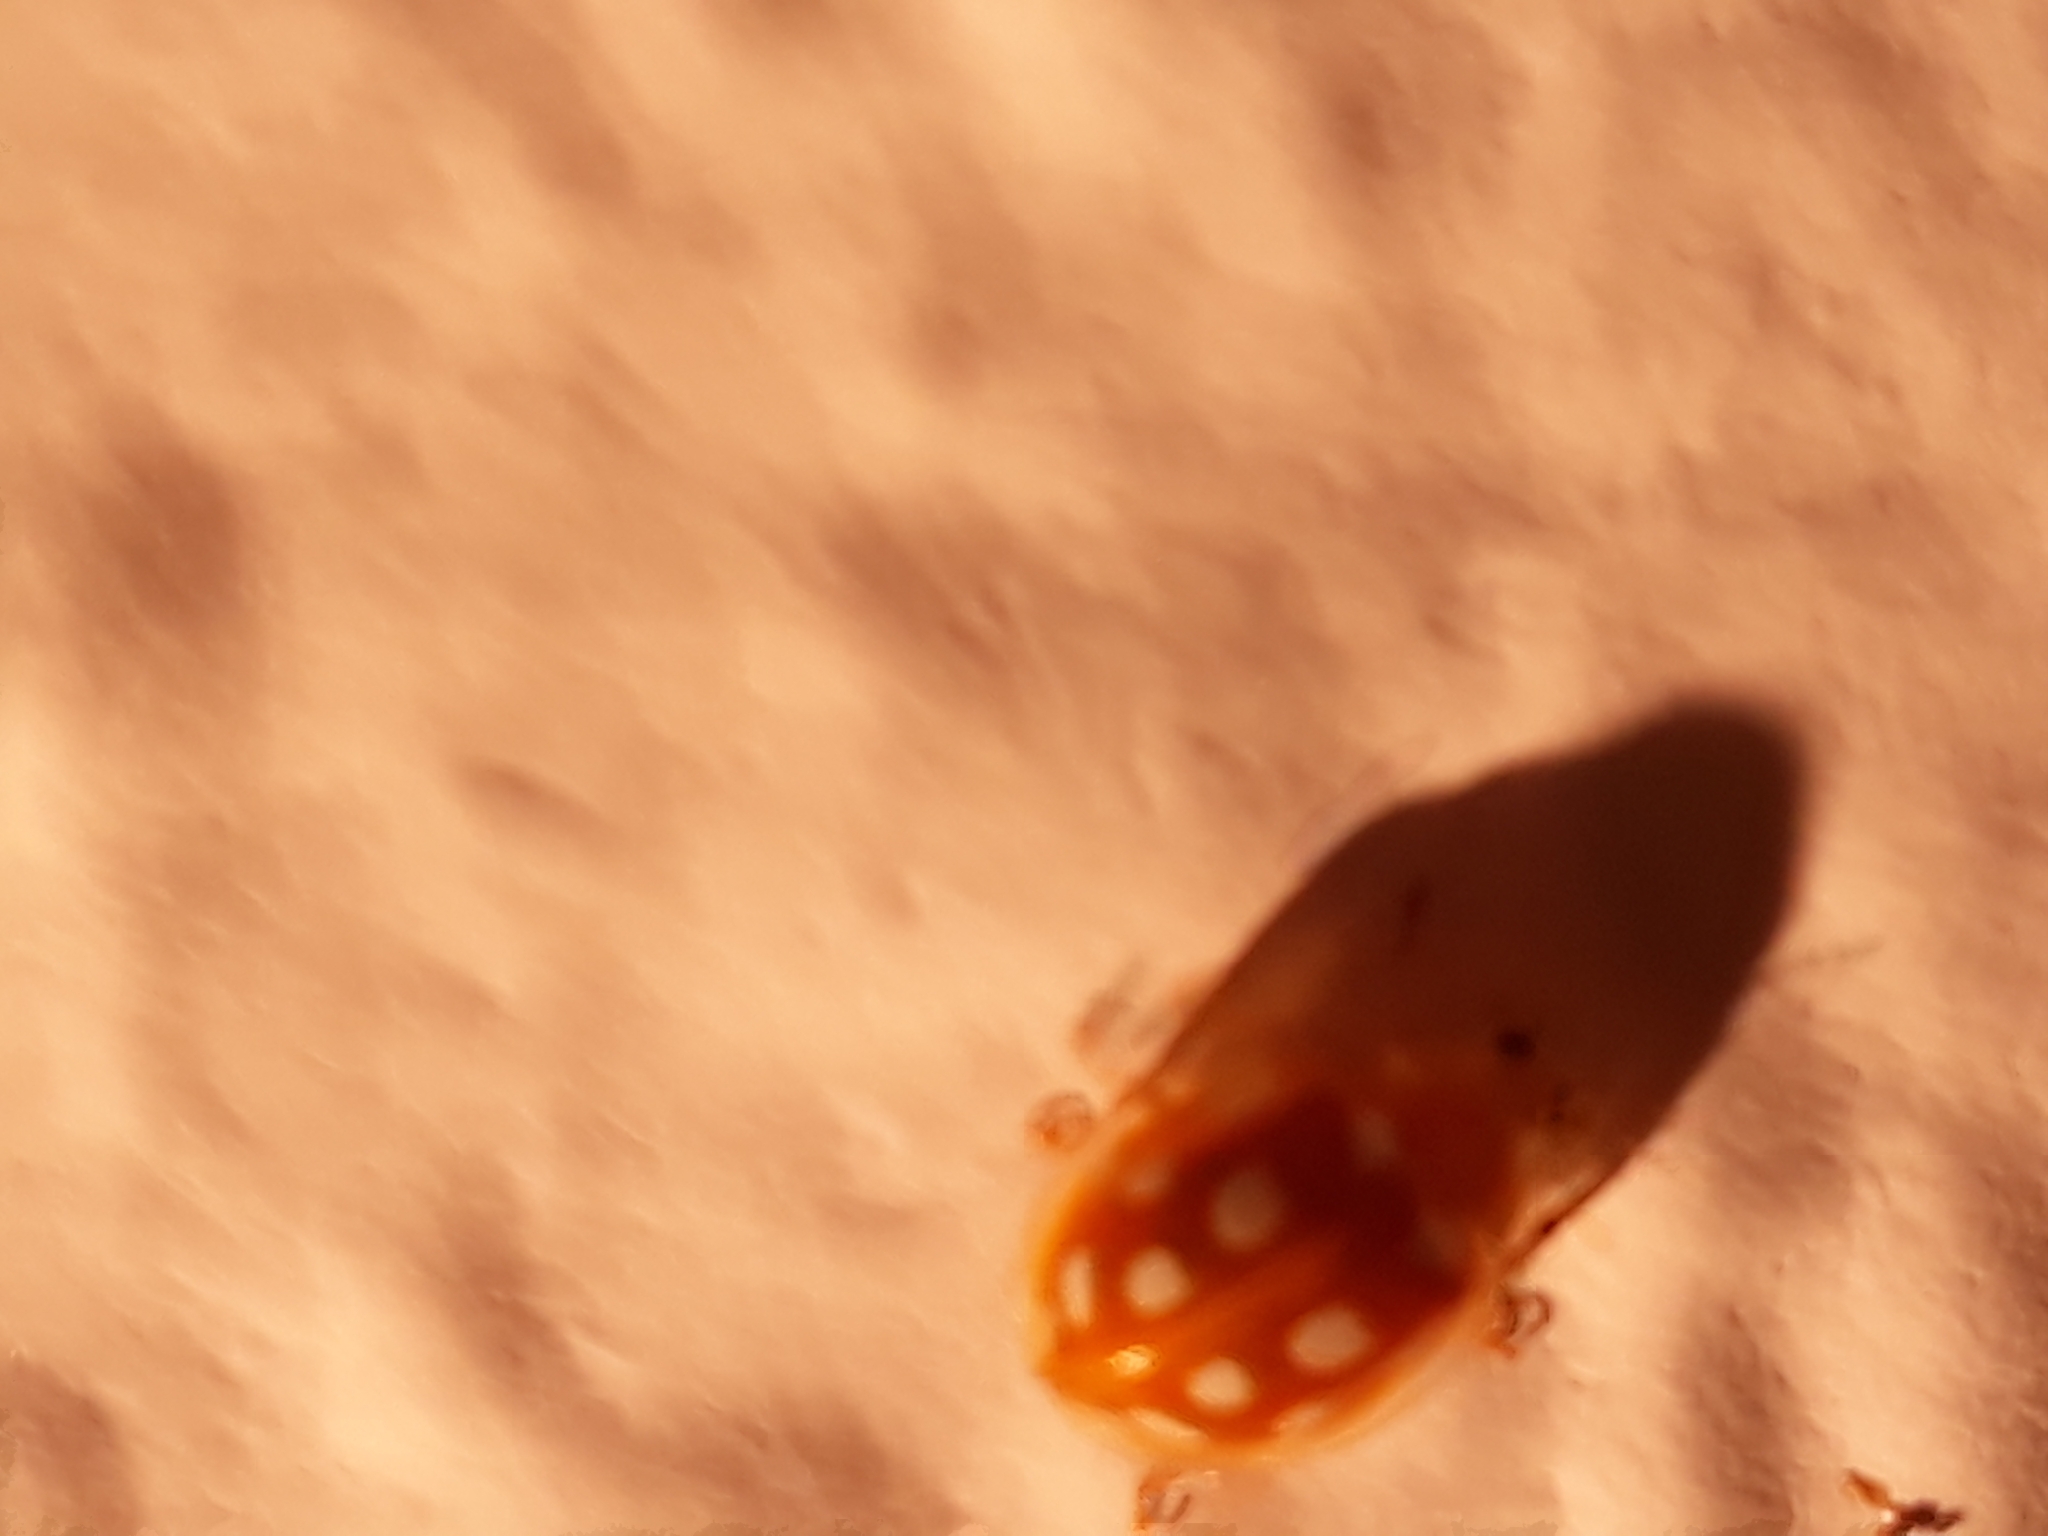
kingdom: Animalia
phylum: Arthropoda
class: Insecta
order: Coleoptera
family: Coccinellidae
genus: Halyzia
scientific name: Halyzia sedecimguttata
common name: Orange ladybird
